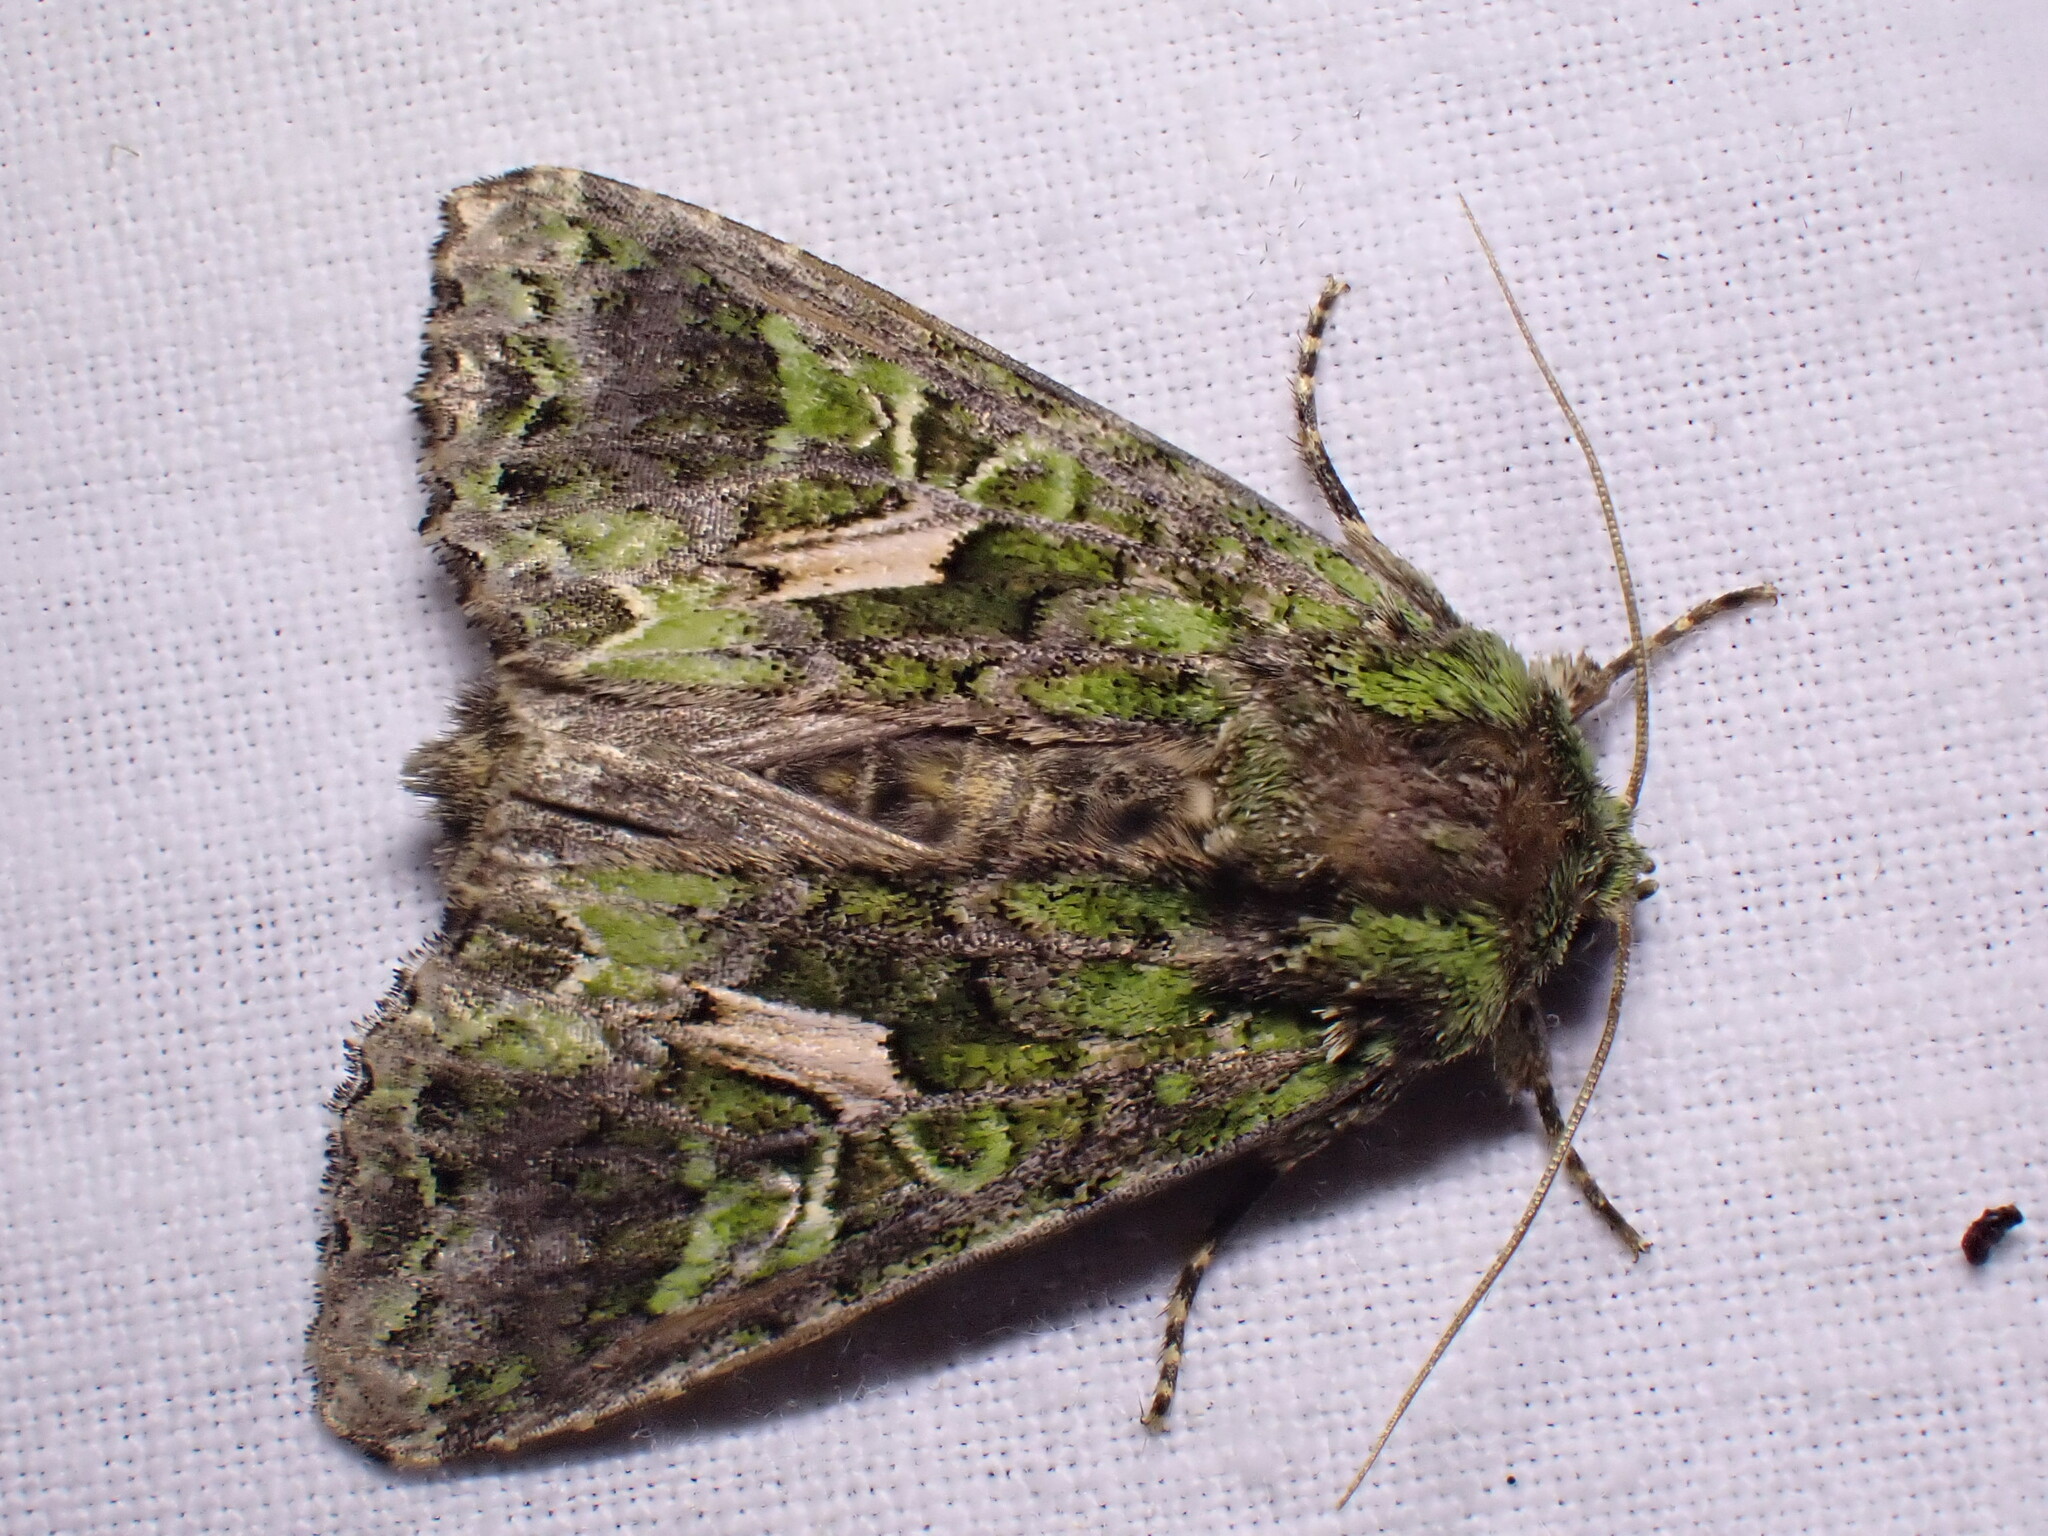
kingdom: Animalia
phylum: Arthropoda
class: Insecta
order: Lepidoptera
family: Noctuidae
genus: Trachea
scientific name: Trachea atriplicis
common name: Orache moth
